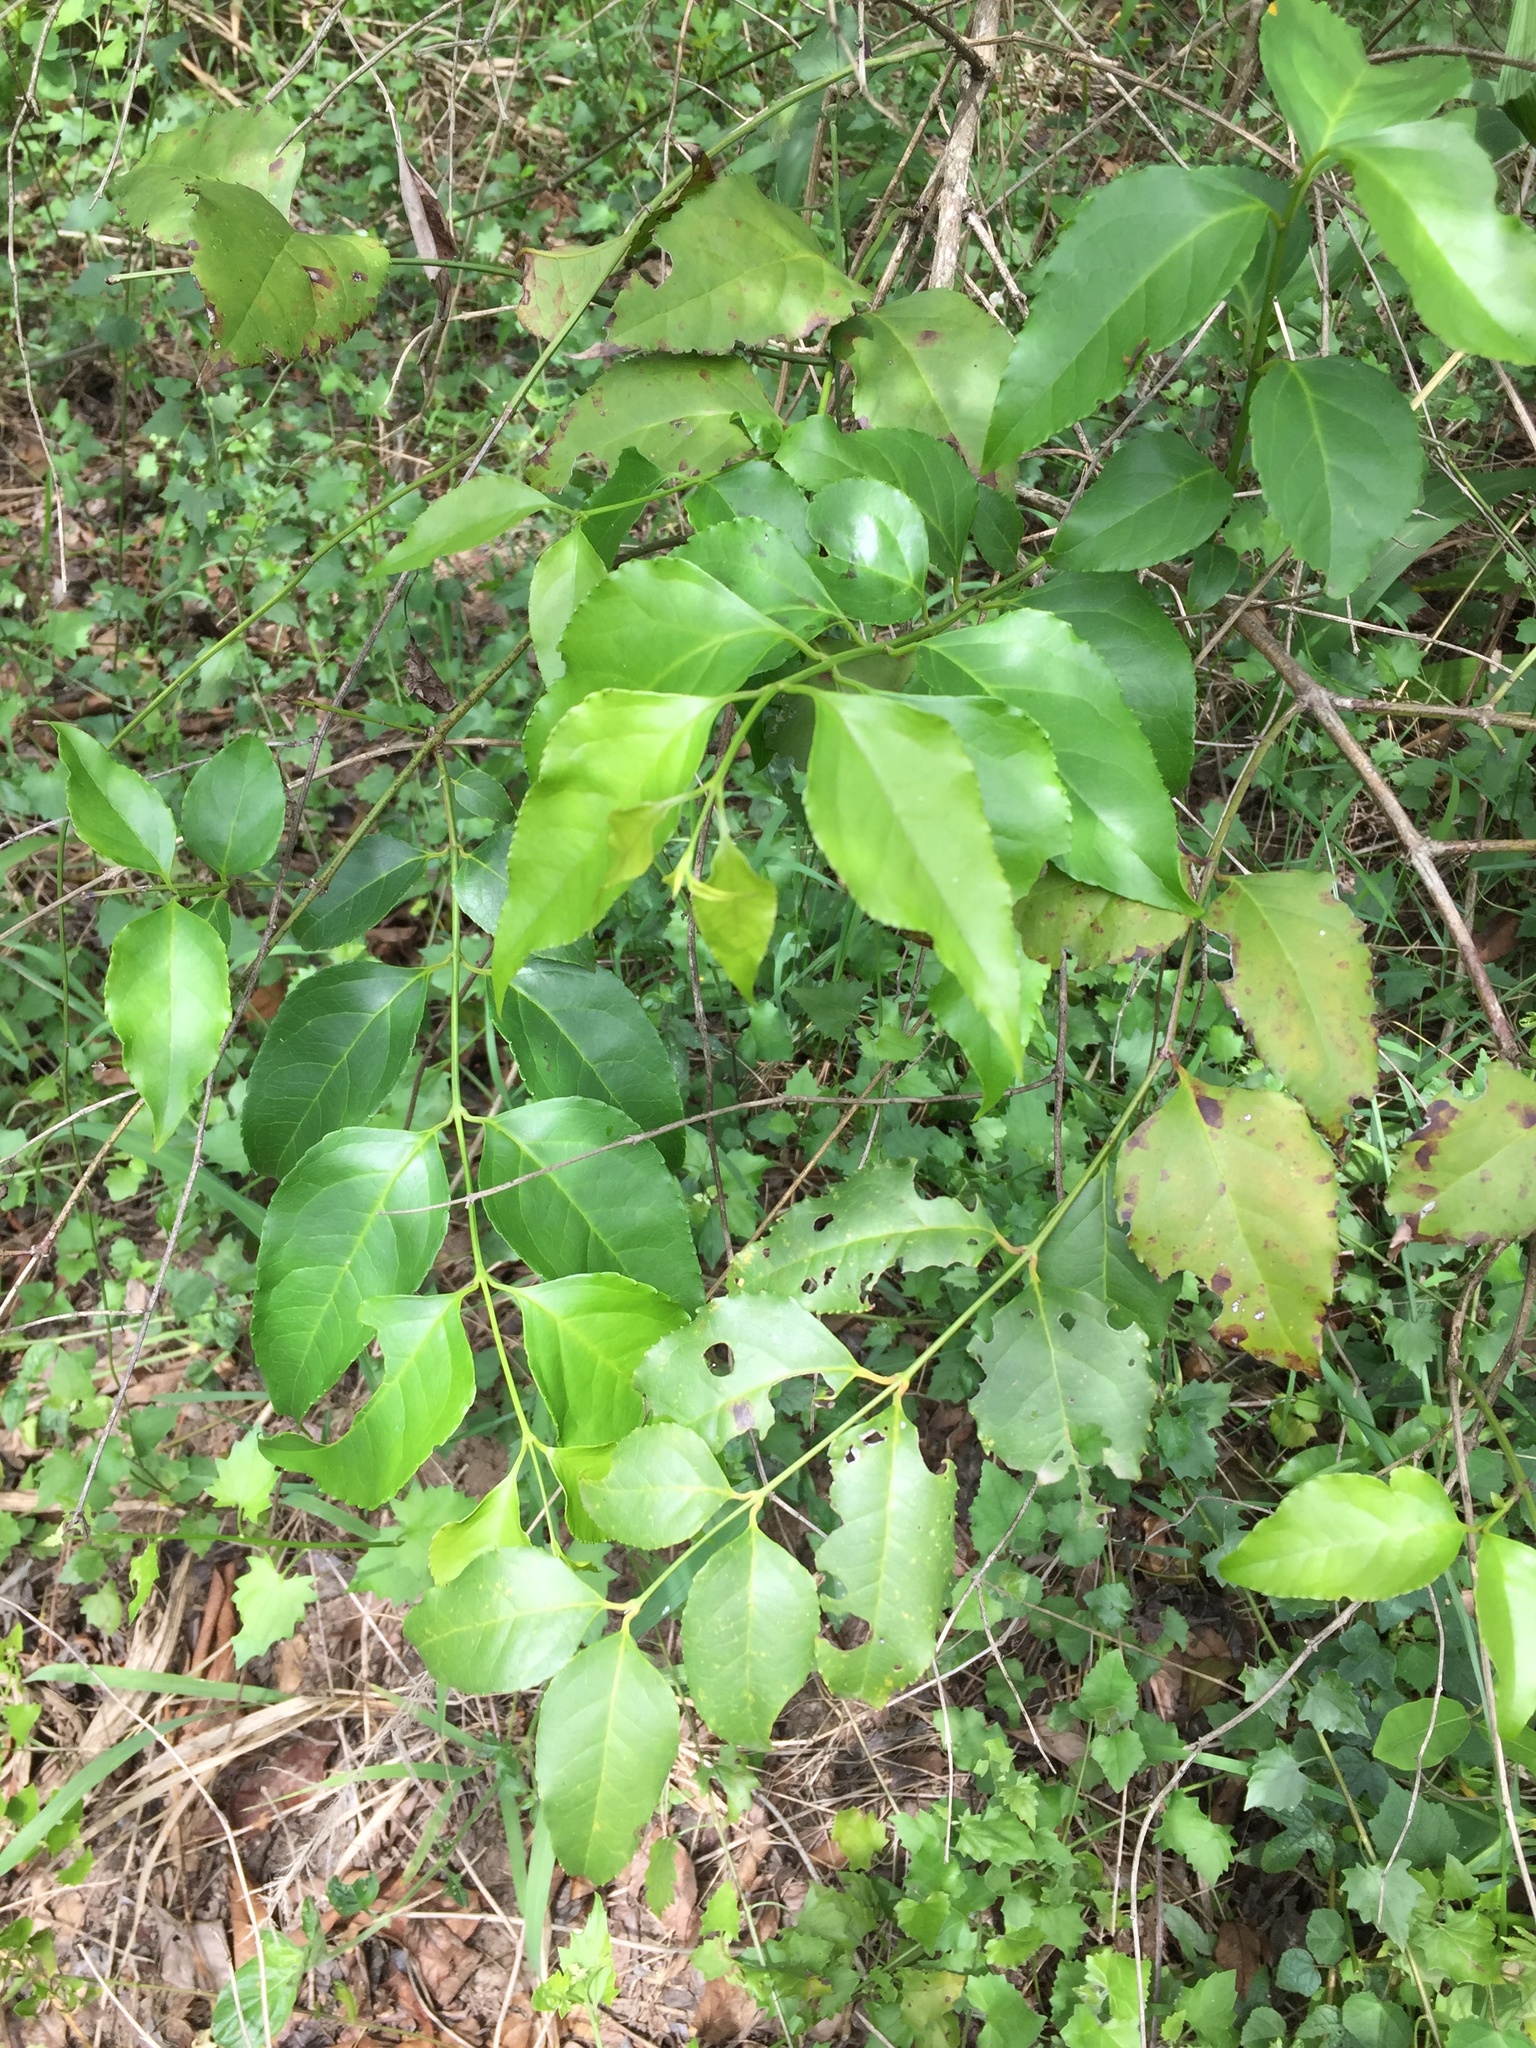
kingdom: Plantae
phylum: Tracheophyta
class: Magnoliopsida
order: Lamiales
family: Stilbaceae
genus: Halleria
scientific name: Halleria lucida
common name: Tree fuschia
